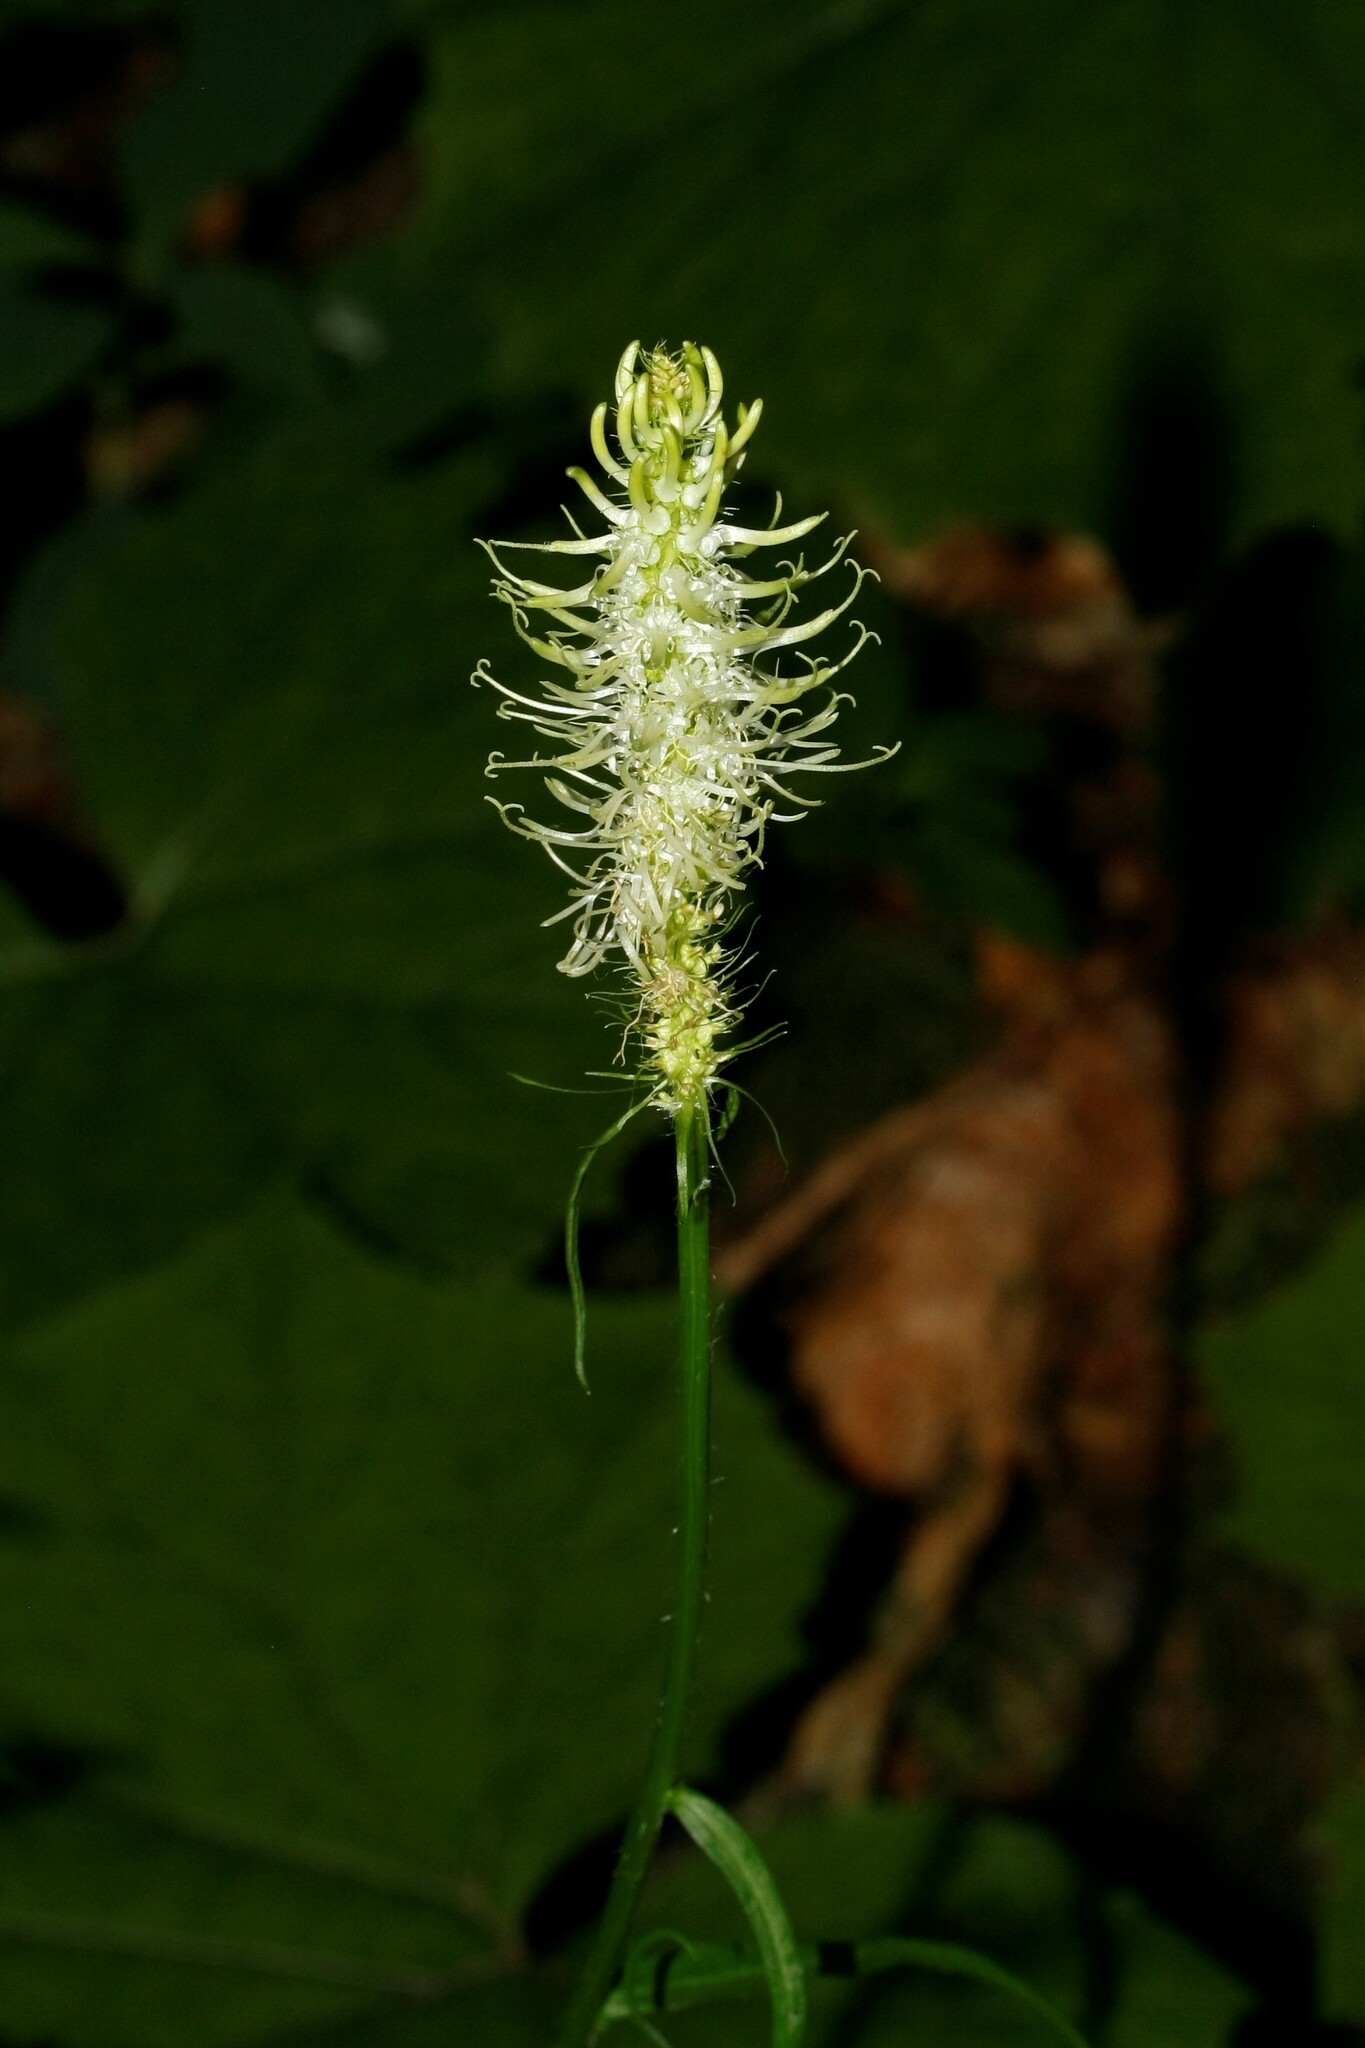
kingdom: Plantae
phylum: Tracheophyta
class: Magnoliopsida
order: Asterales
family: Campanulaceae
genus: Phyteuma
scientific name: Phyteuma spicatum
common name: Spiked rampion
